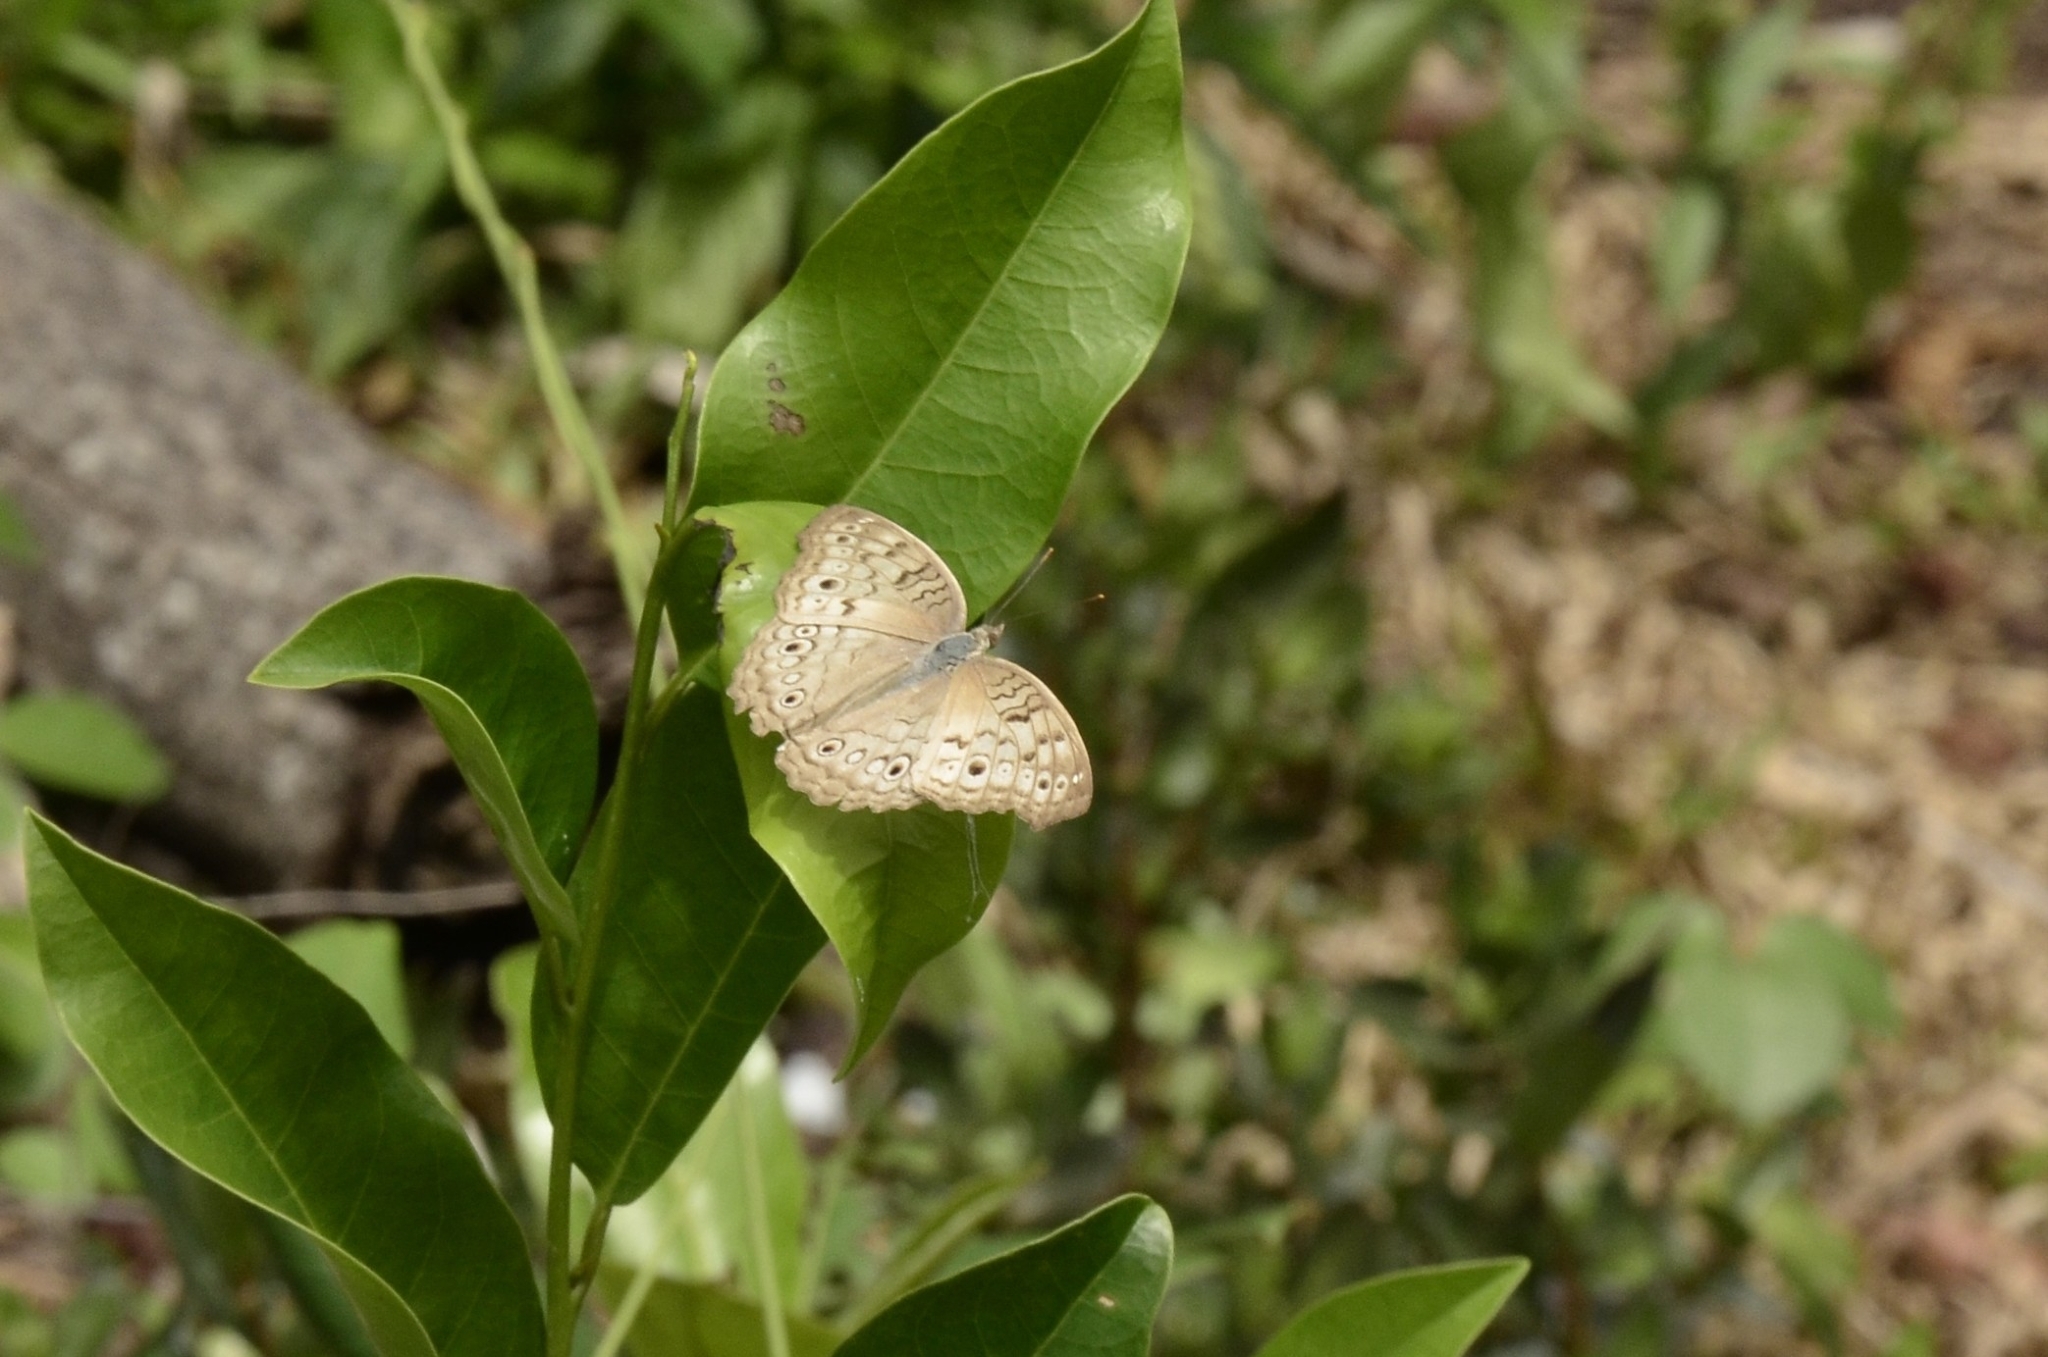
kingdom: Animalia
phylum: Arthropoda
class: Insecta
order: Lepidoptera
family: Nymphalidae
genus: Junonia
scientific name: Junonia atlites
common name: Grey pansy
